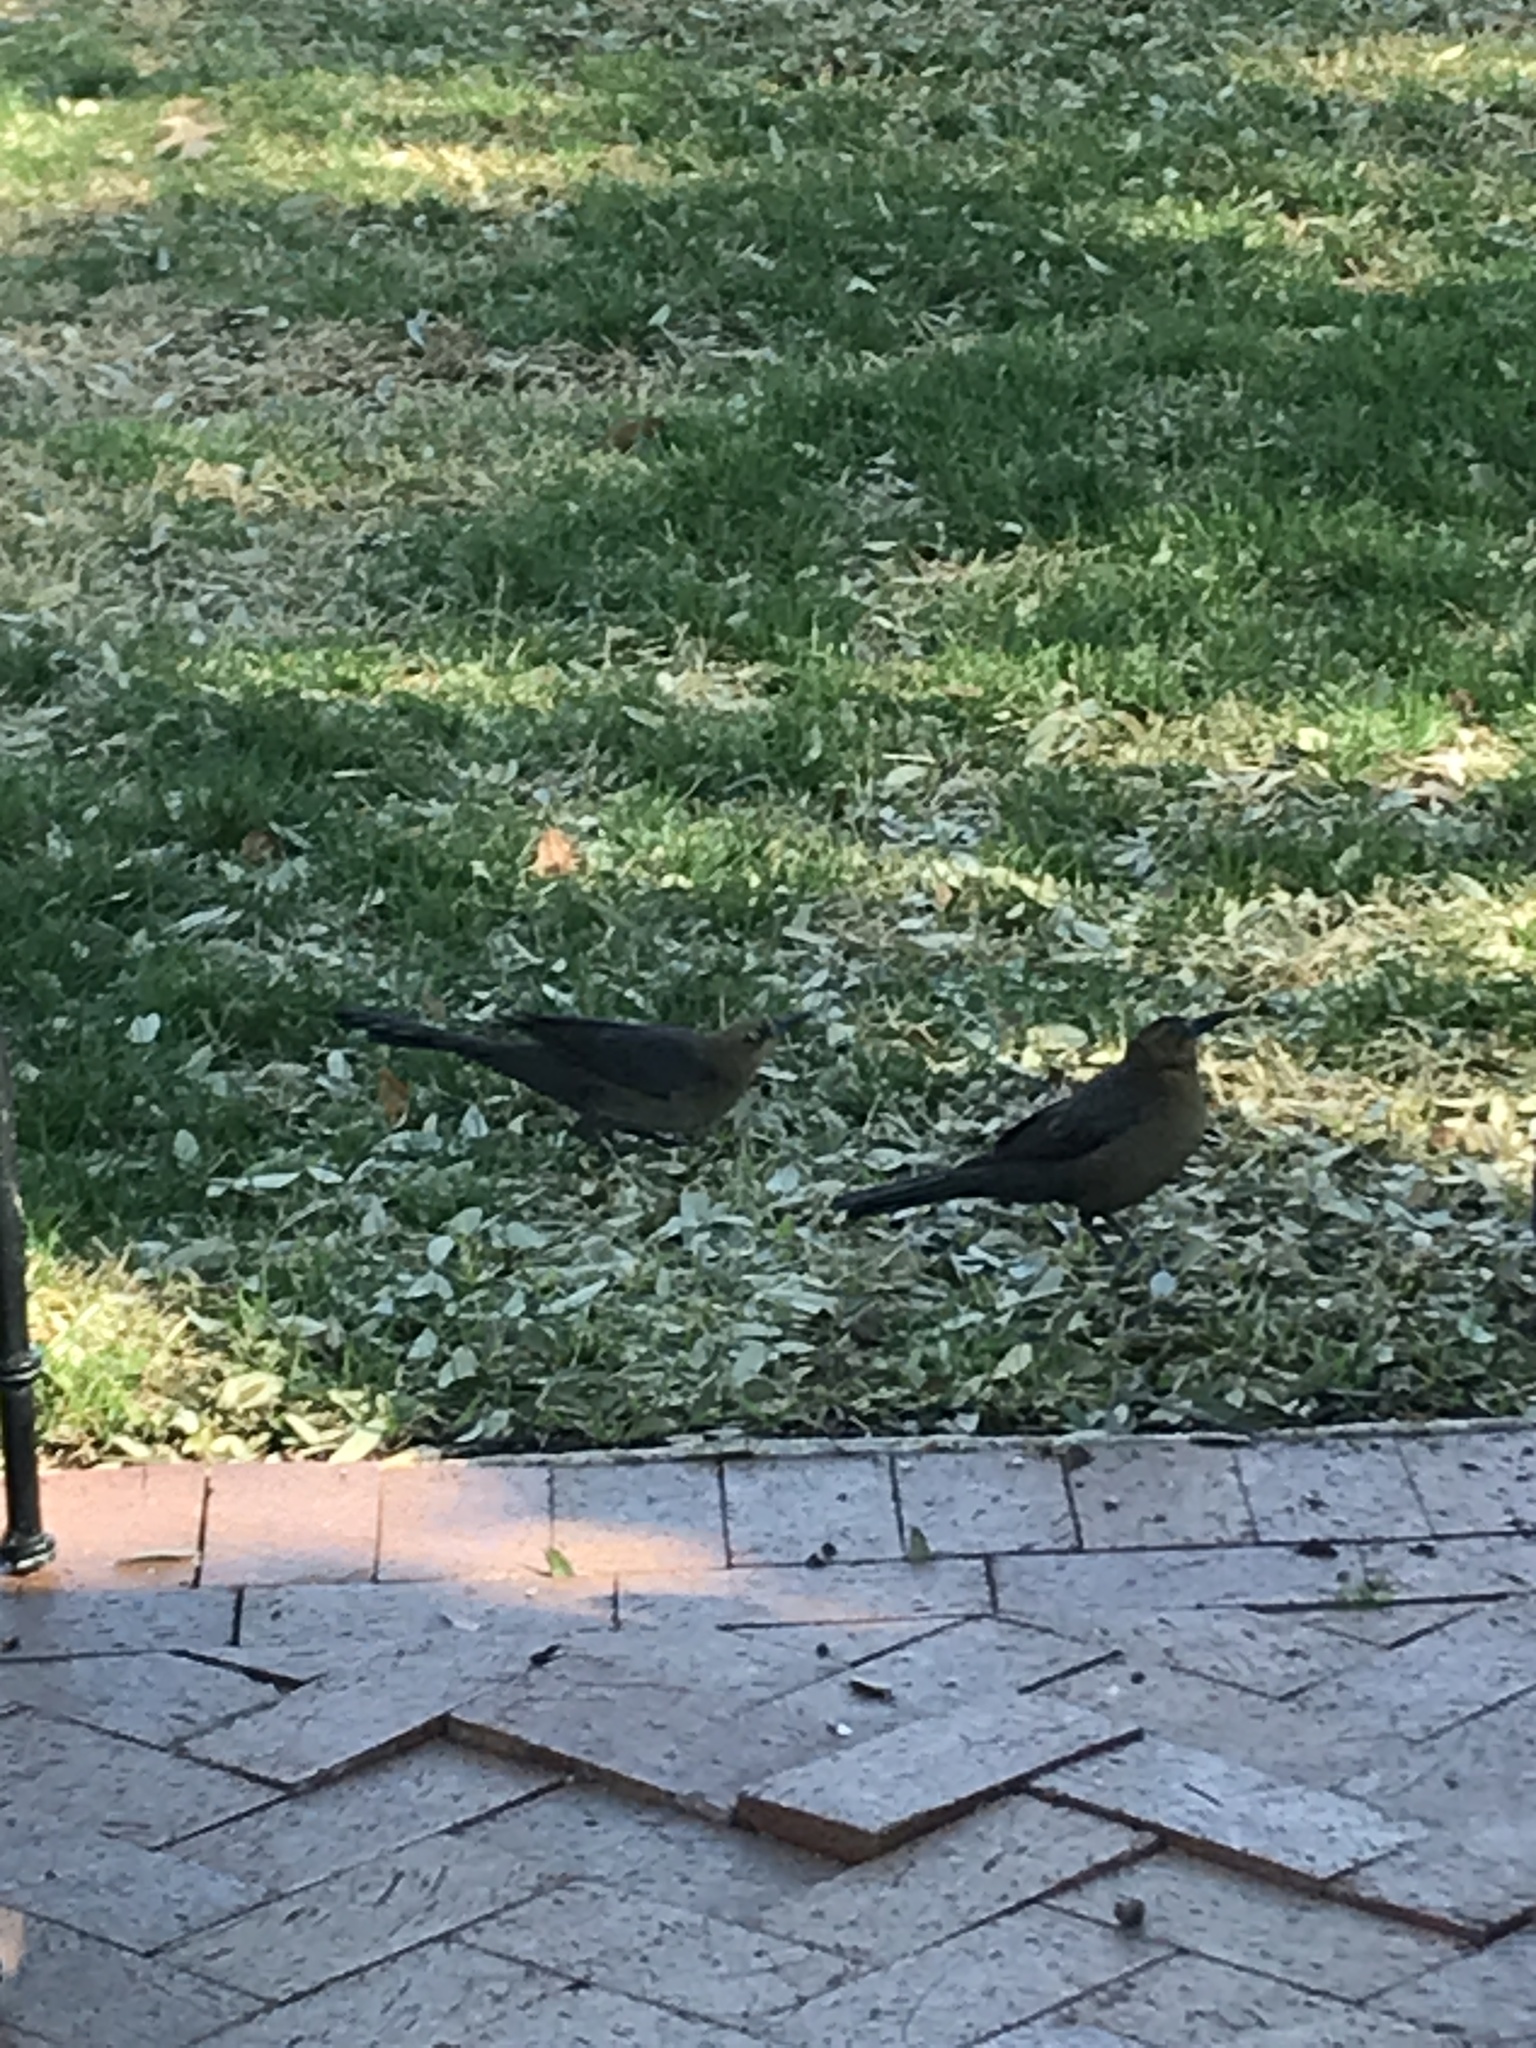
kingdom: Animalia
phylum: Chordata
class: Aves
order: Passeriformes
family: Icteridae
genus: Quiscalus
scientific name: Quiscalus mexicanus
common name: Great-tailed grackle
